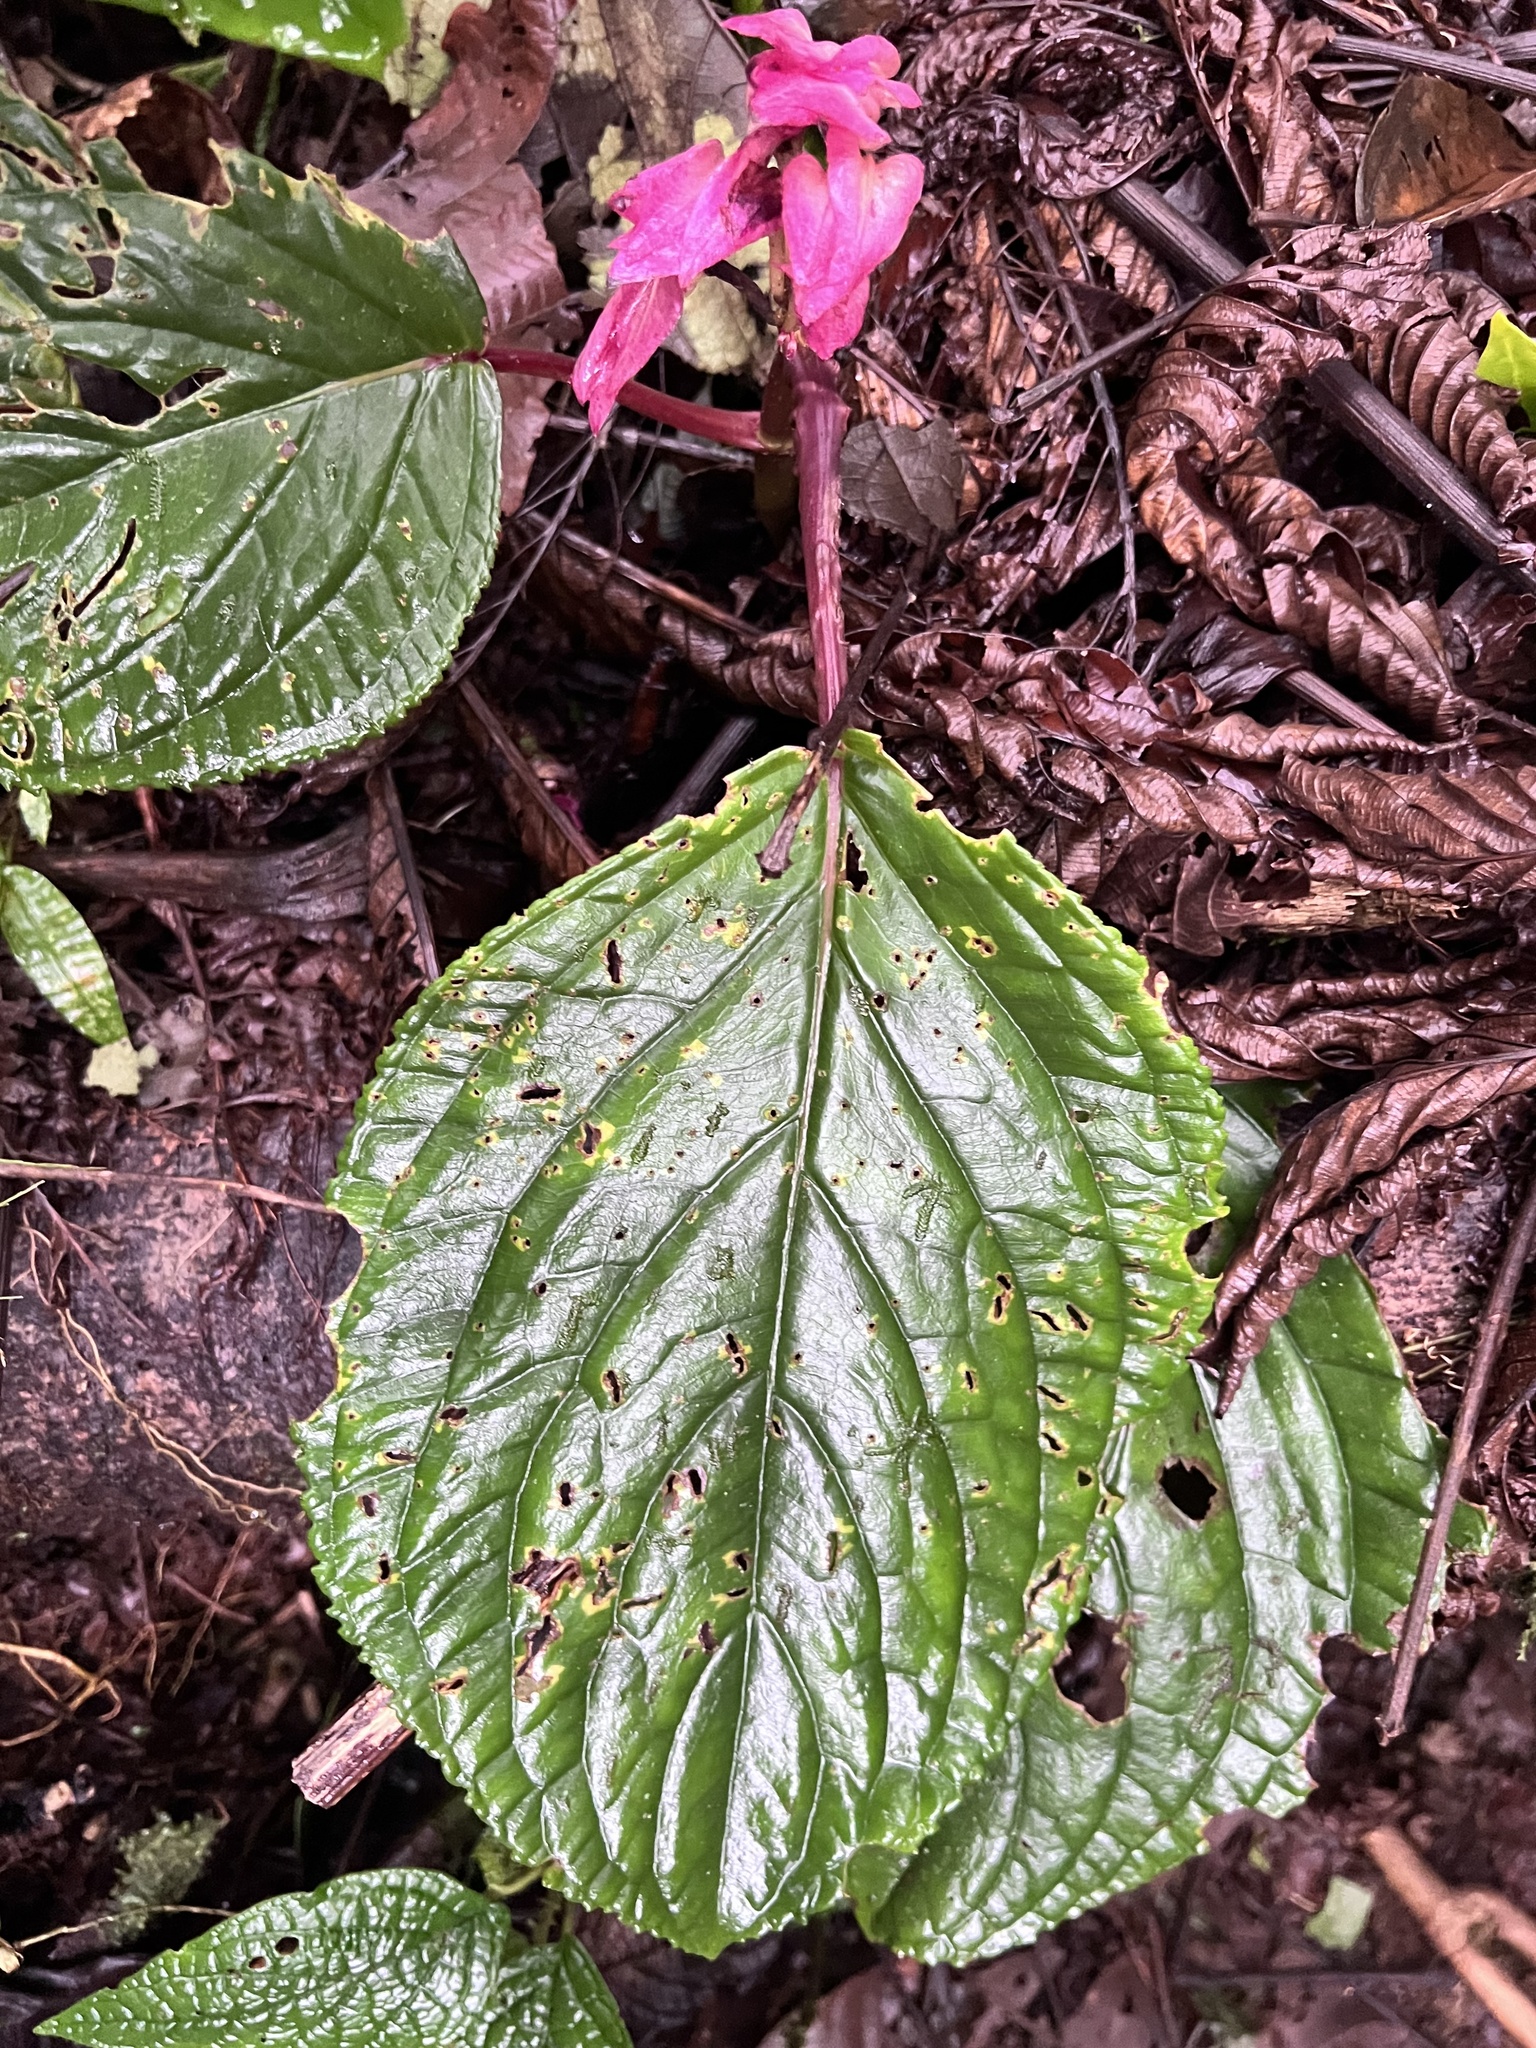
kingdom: Plantae
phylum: Tracheophyta
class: Magnoliopsida
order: Lamiales
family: Gesneriaceae
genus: Drymonia
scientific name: Drymonia turrialvae
